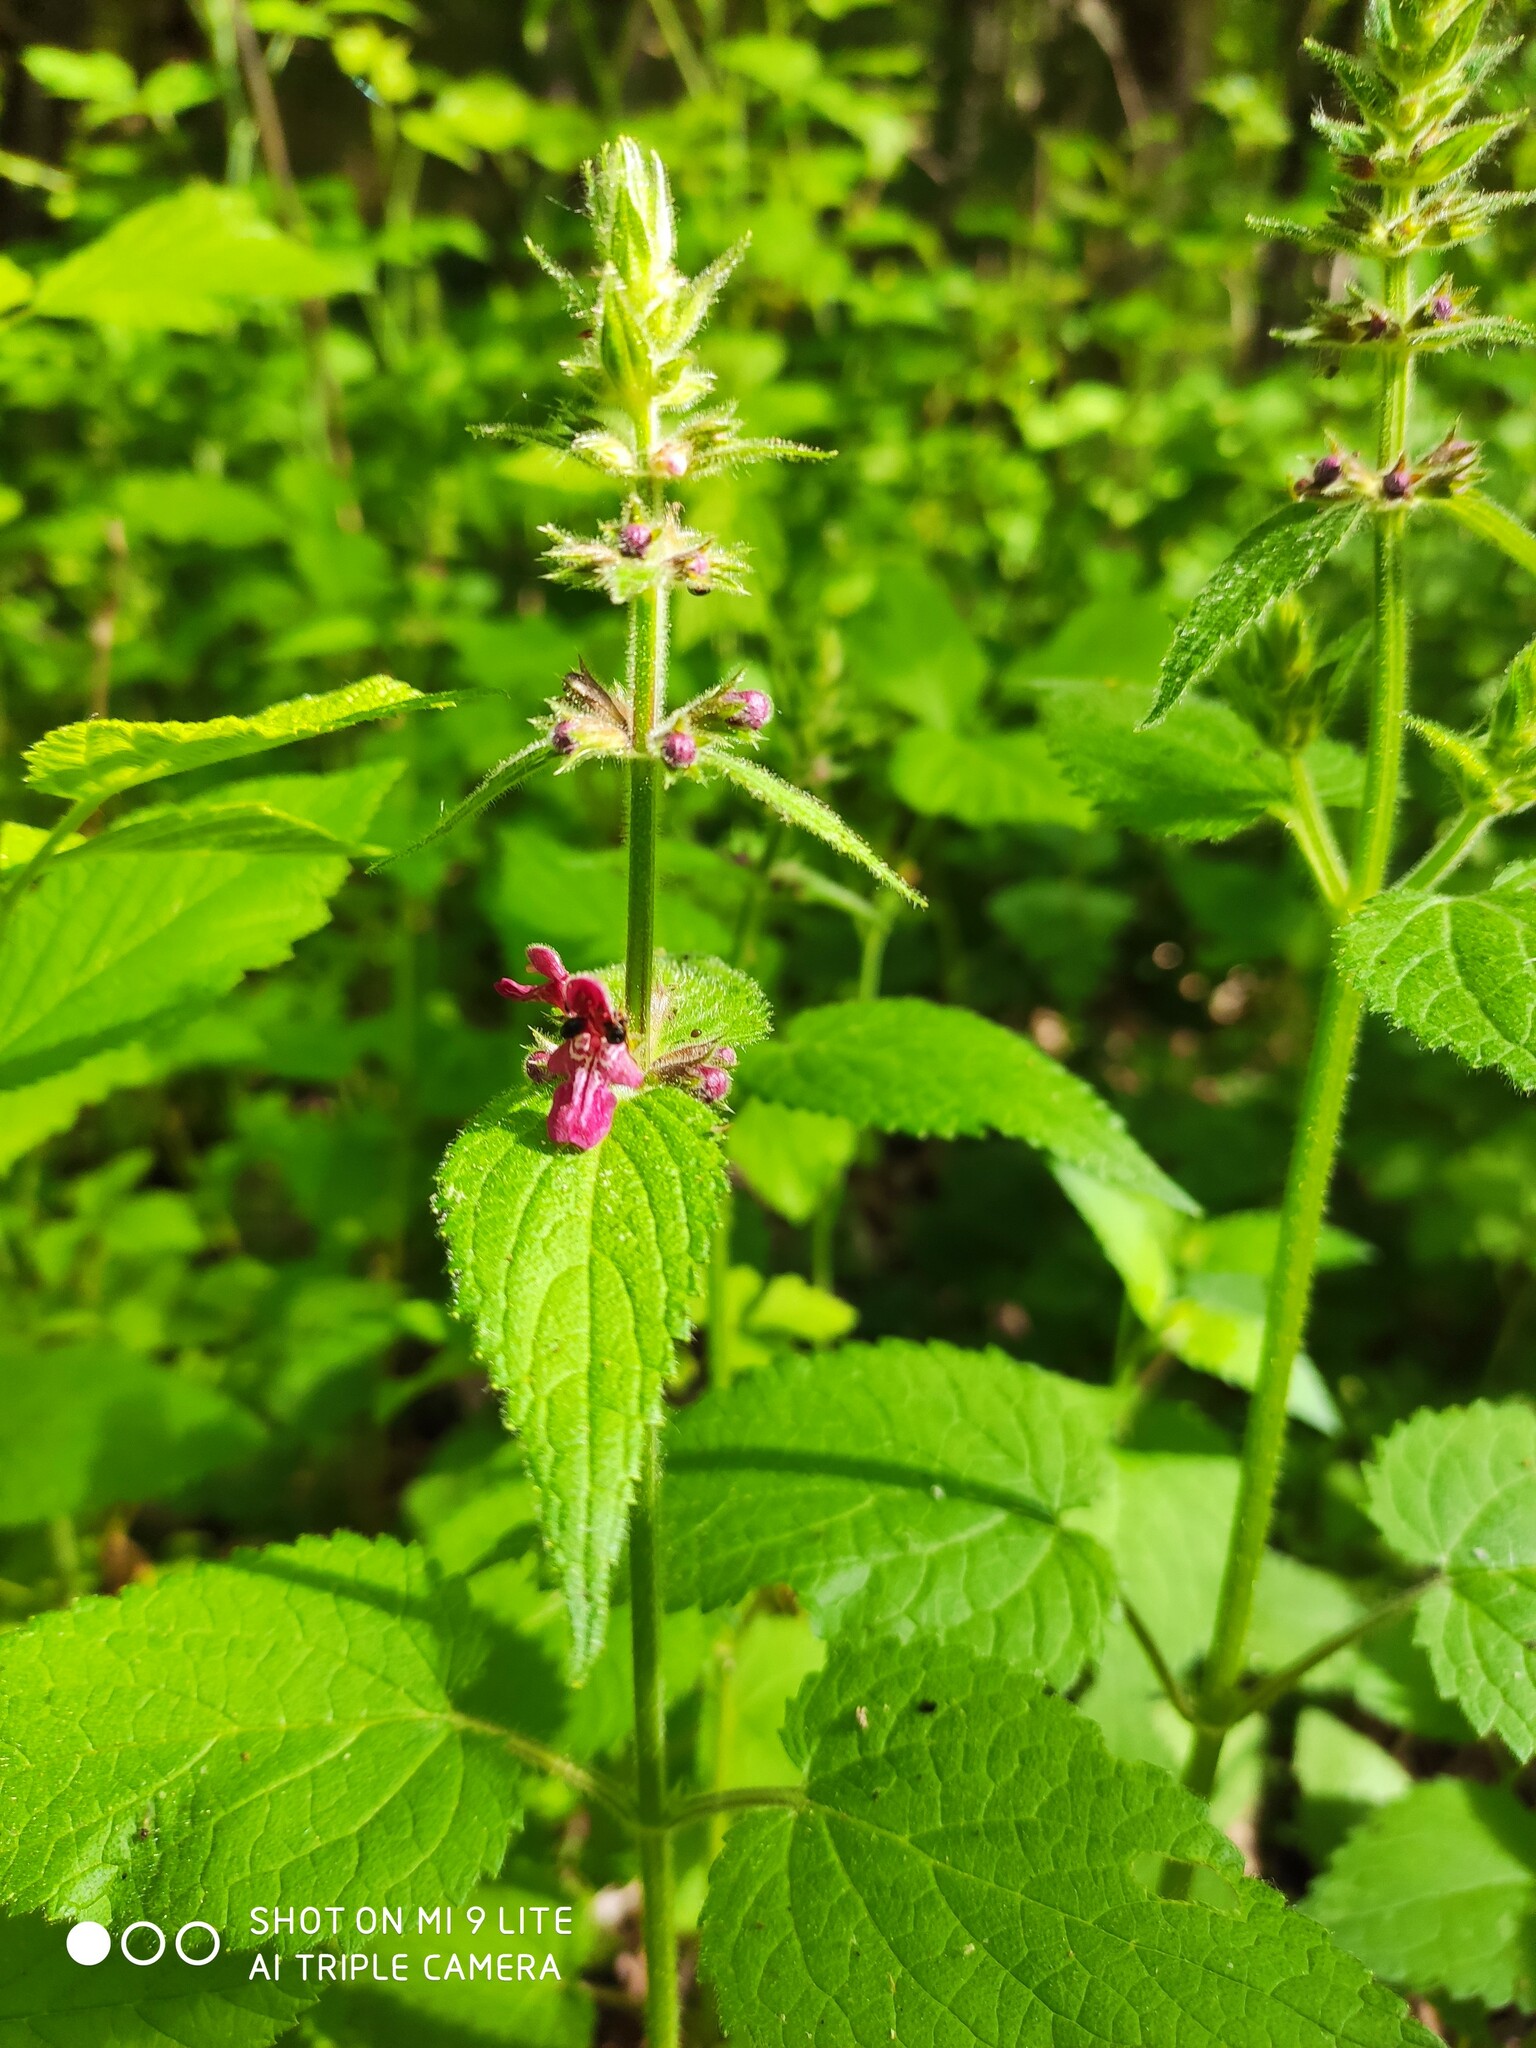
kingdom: Plantae
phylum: Tracheophyta
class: Magnoliopsida
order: Lamiales
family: Lamiaceae
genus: Stachys
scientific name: Stachys sylvatica
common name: Hedge woundwort
